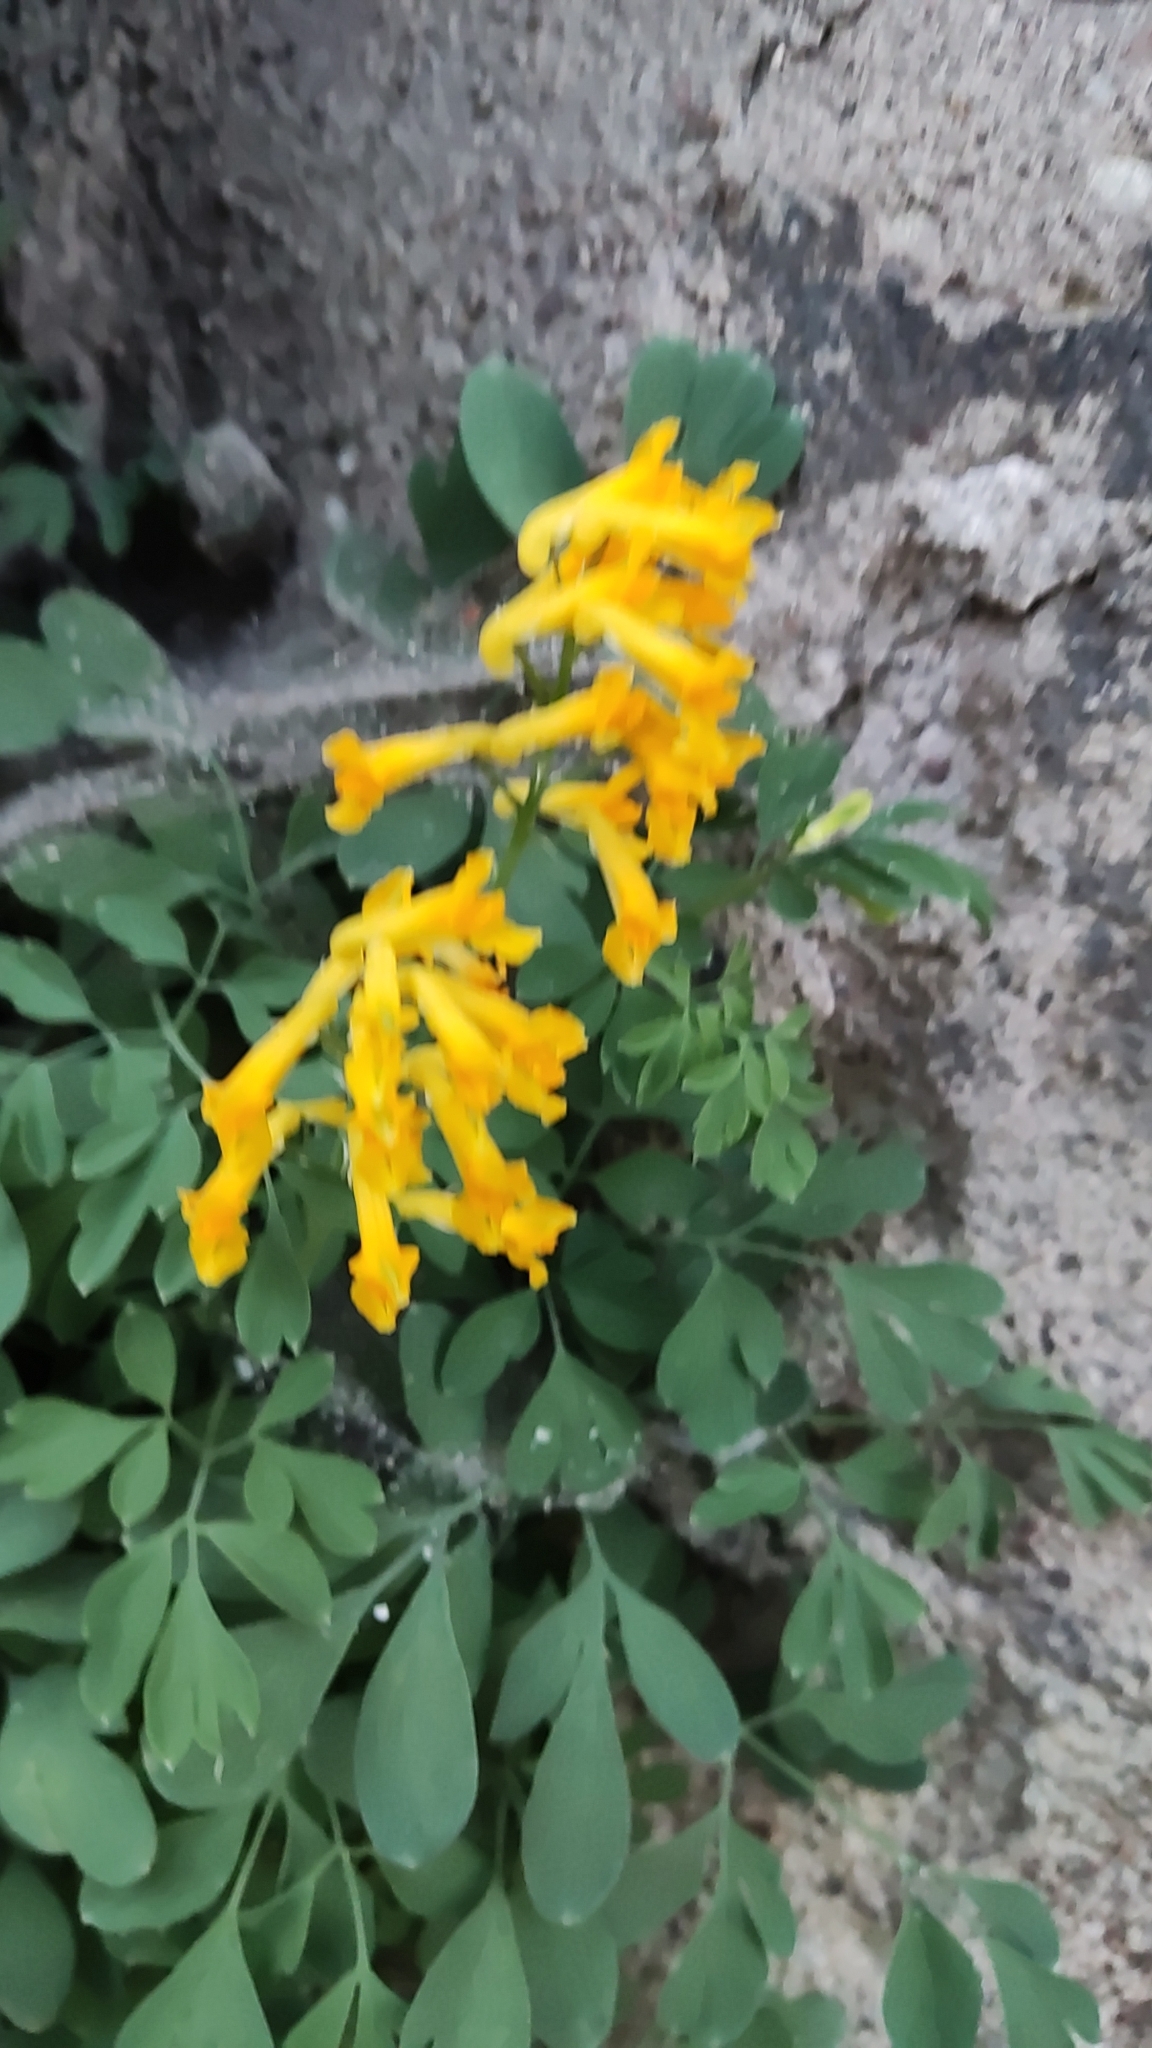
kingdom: Plantae
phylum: Tracheophyta
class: Magnoliopsida
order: Ranunculales
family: Papaveraceae
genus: Pseudofumaria
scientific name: Pseudofumaria lutea
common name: Yellow corydalis
